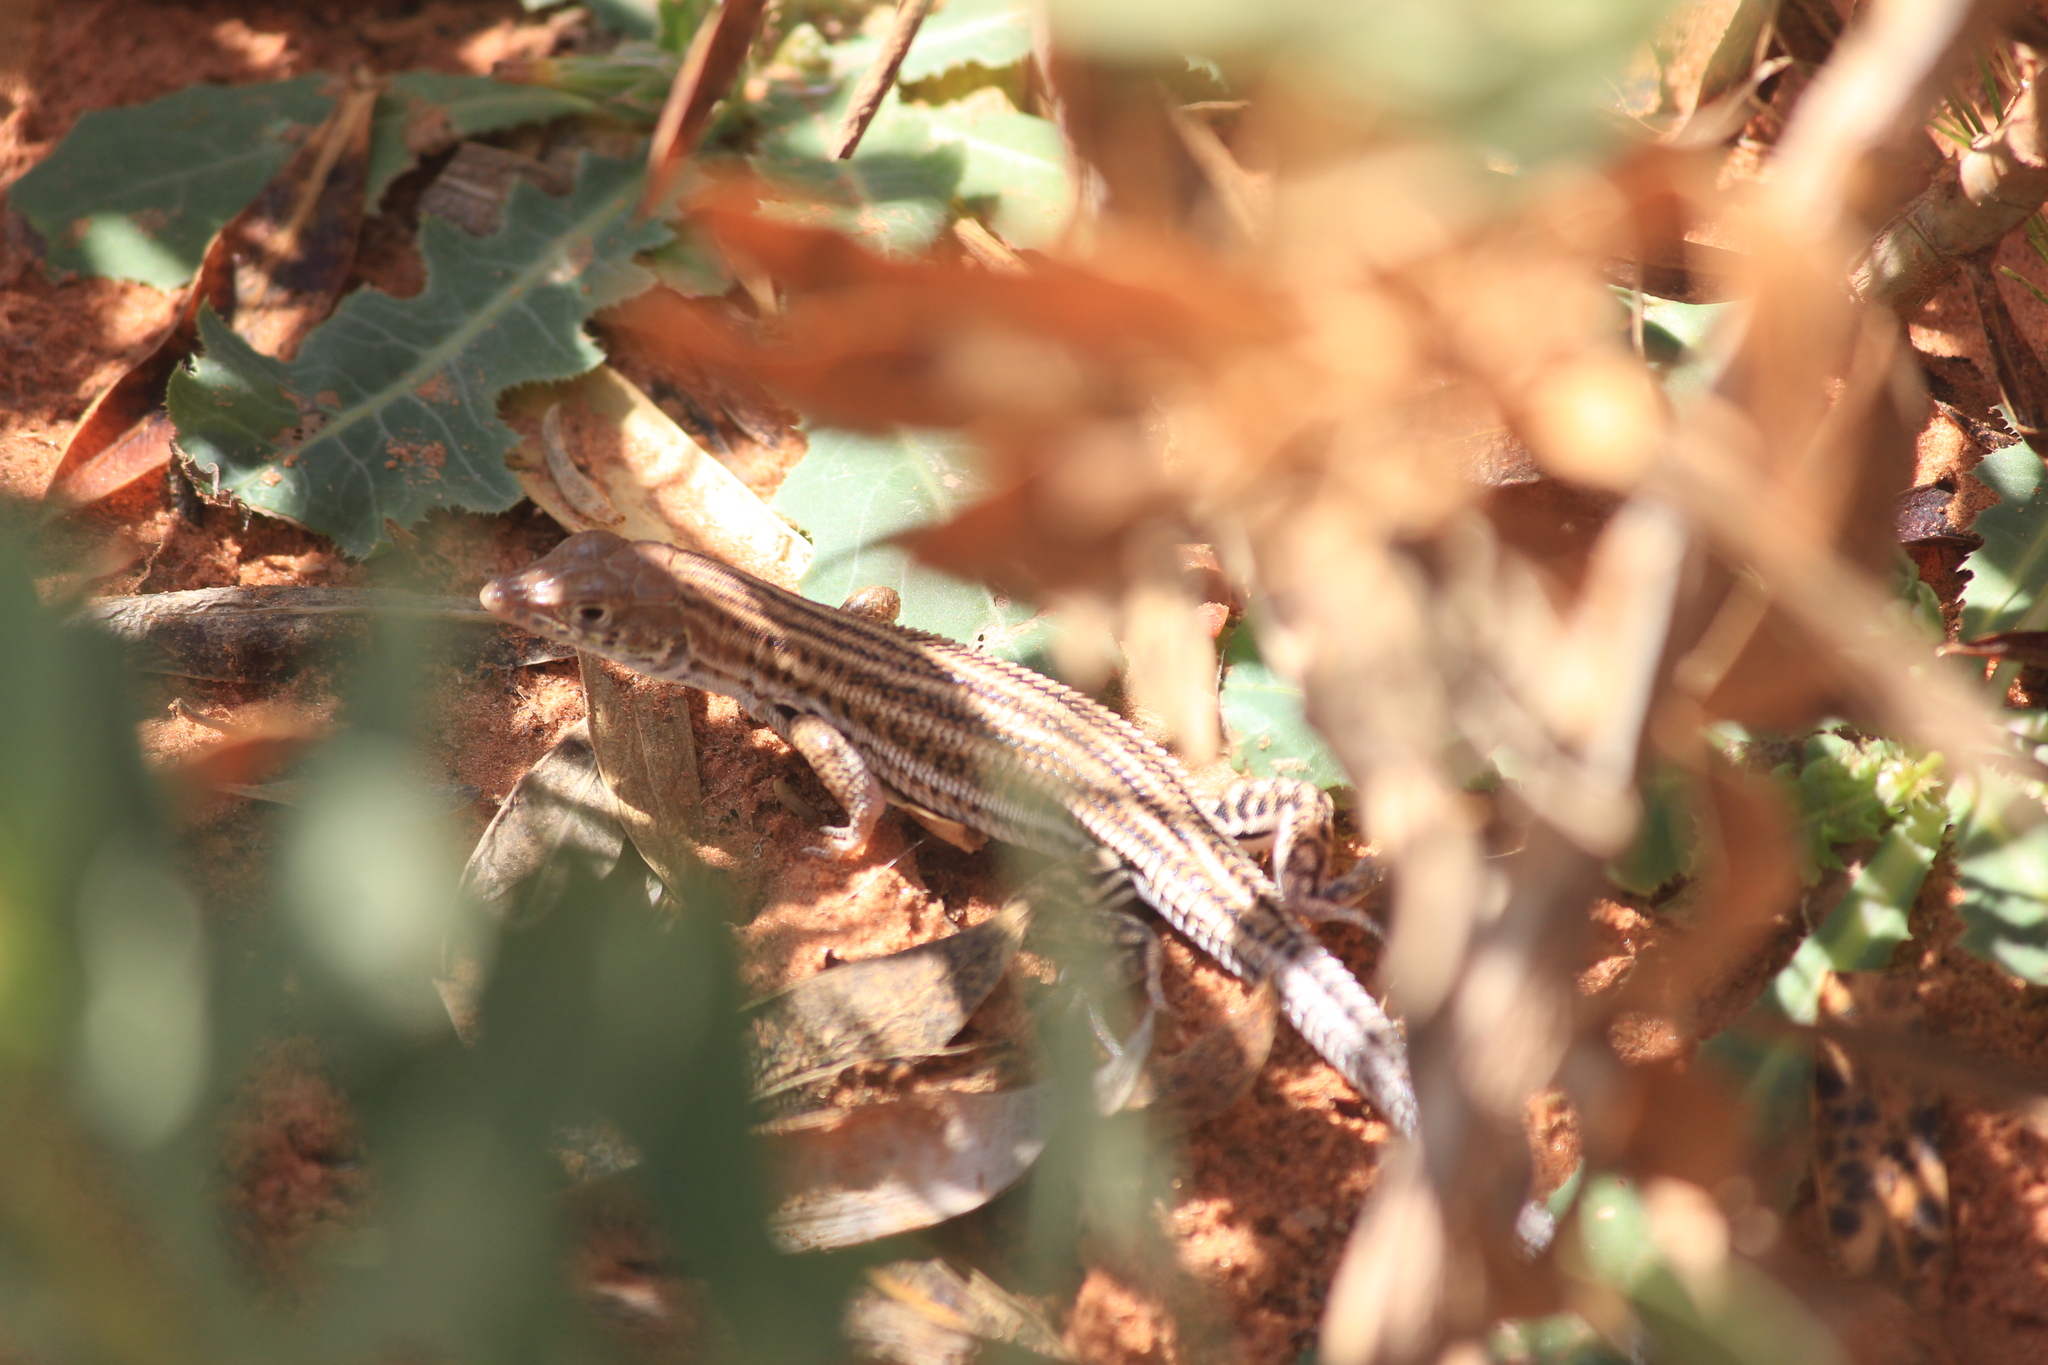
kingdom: Animalia
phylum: Chordata
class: Squamata
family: Lacertidae
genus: Acanthodactylus
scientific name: Acanthodactylus boskianus
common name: Bosc’s fringe-toed lizard
